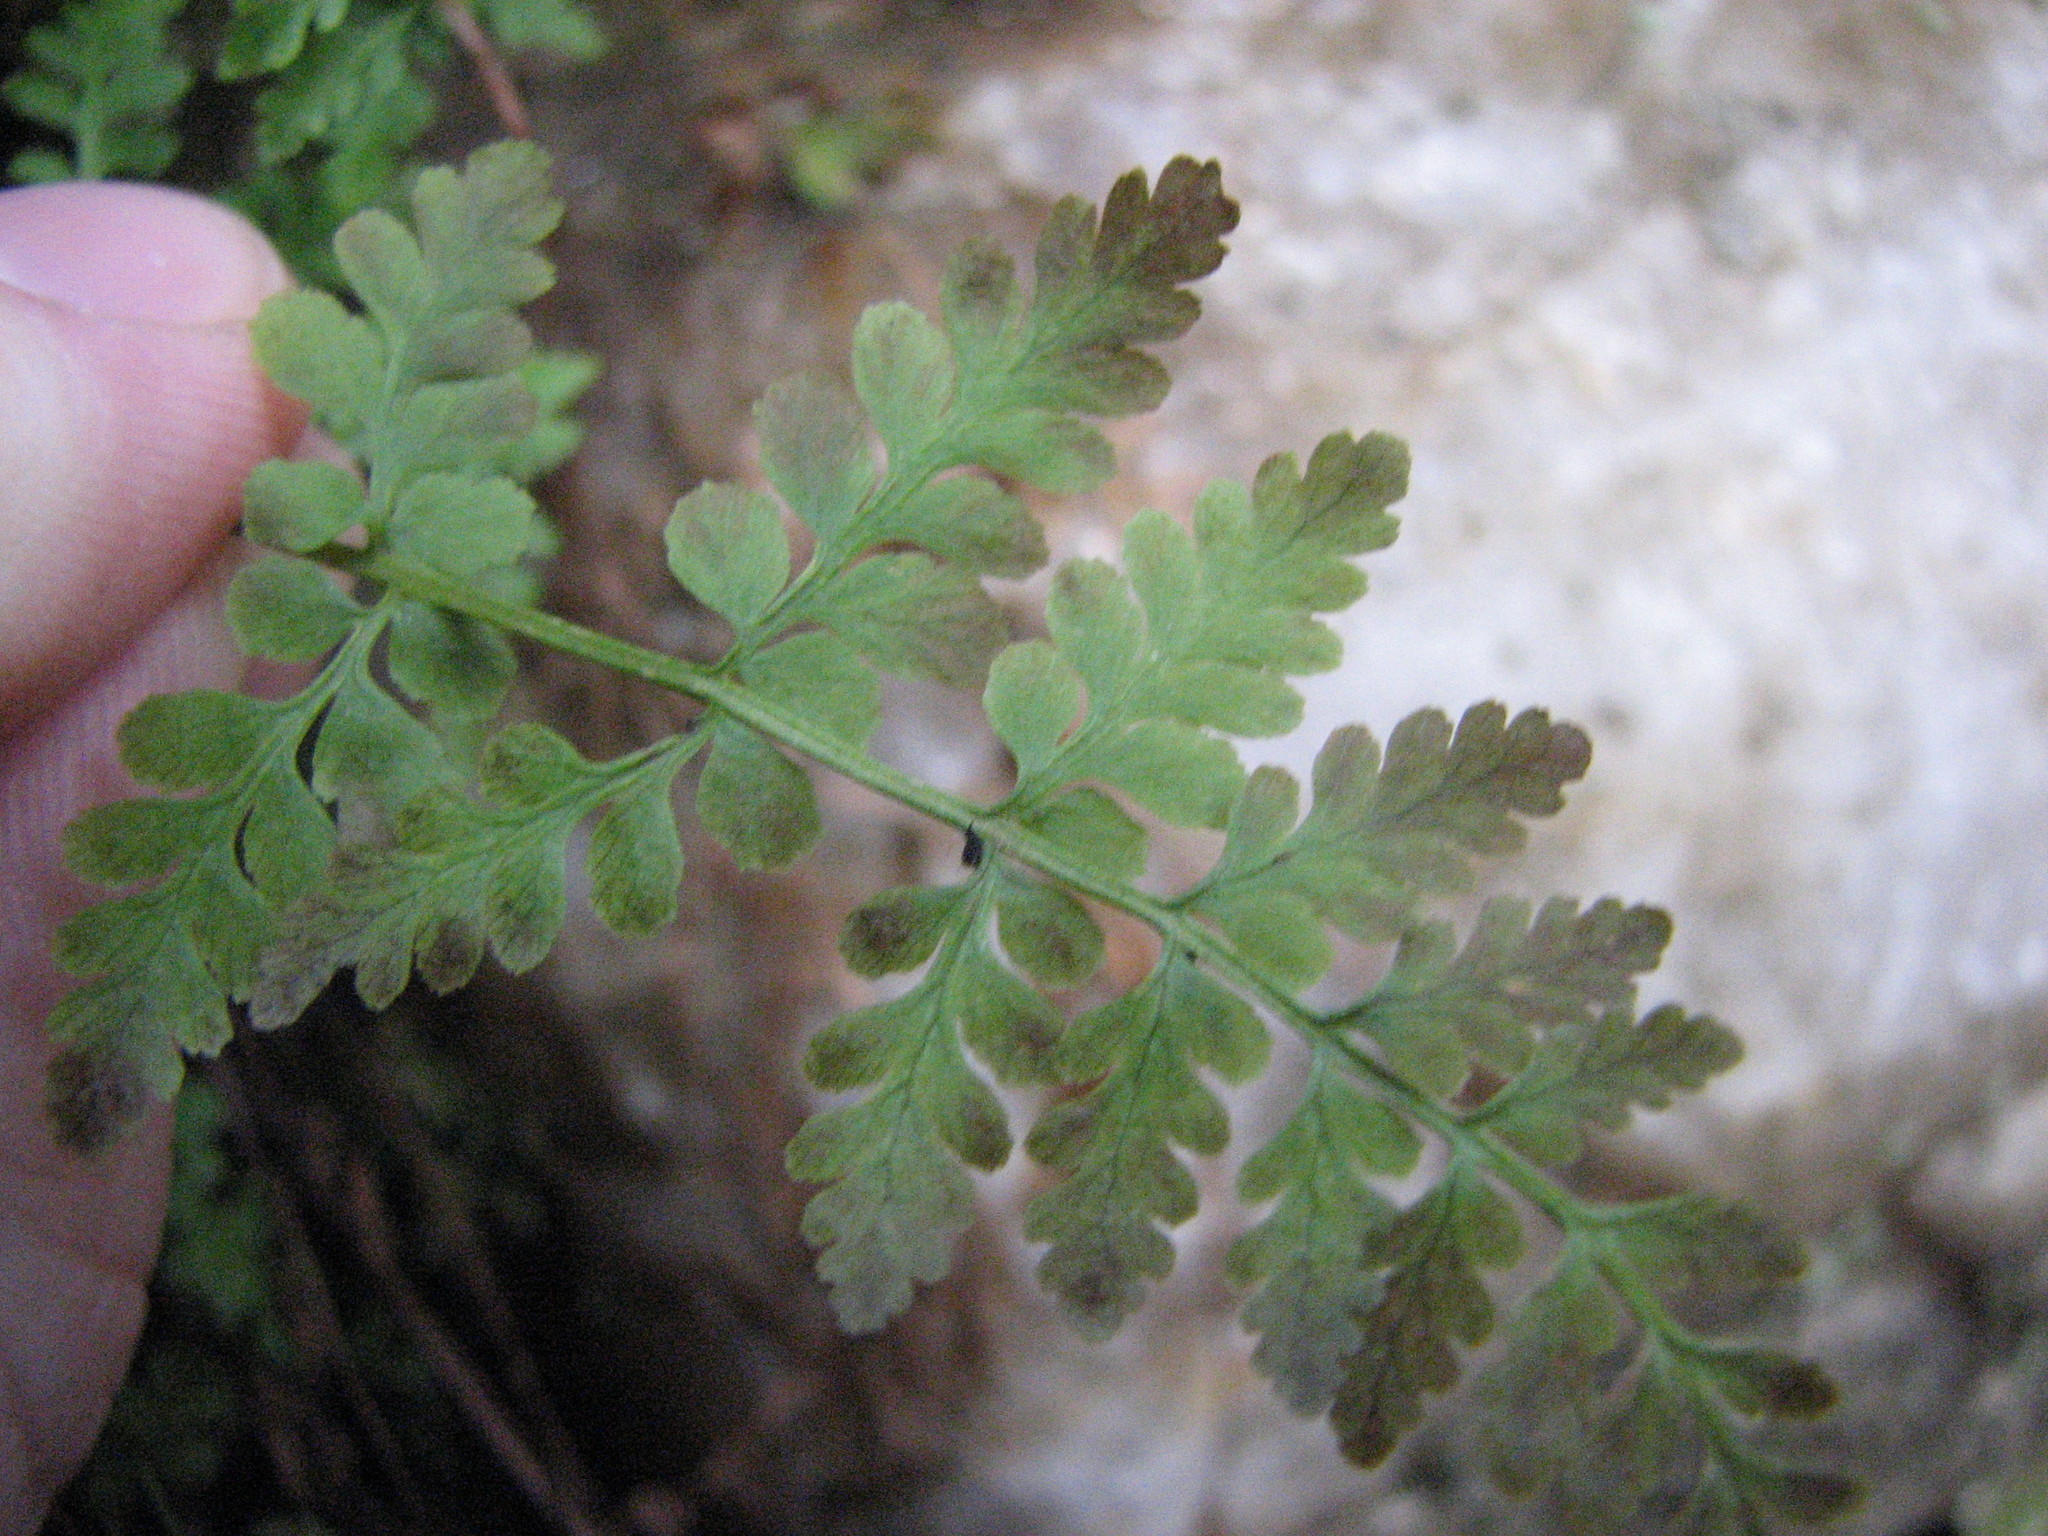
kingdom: Plantae
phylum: Tracheophyta
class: Polypodiopsida
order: Polypodiales
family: Cystopteridaceae
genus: Cystopteris
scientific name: Cystopteris tenuis
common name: Mackay's brittle fern
